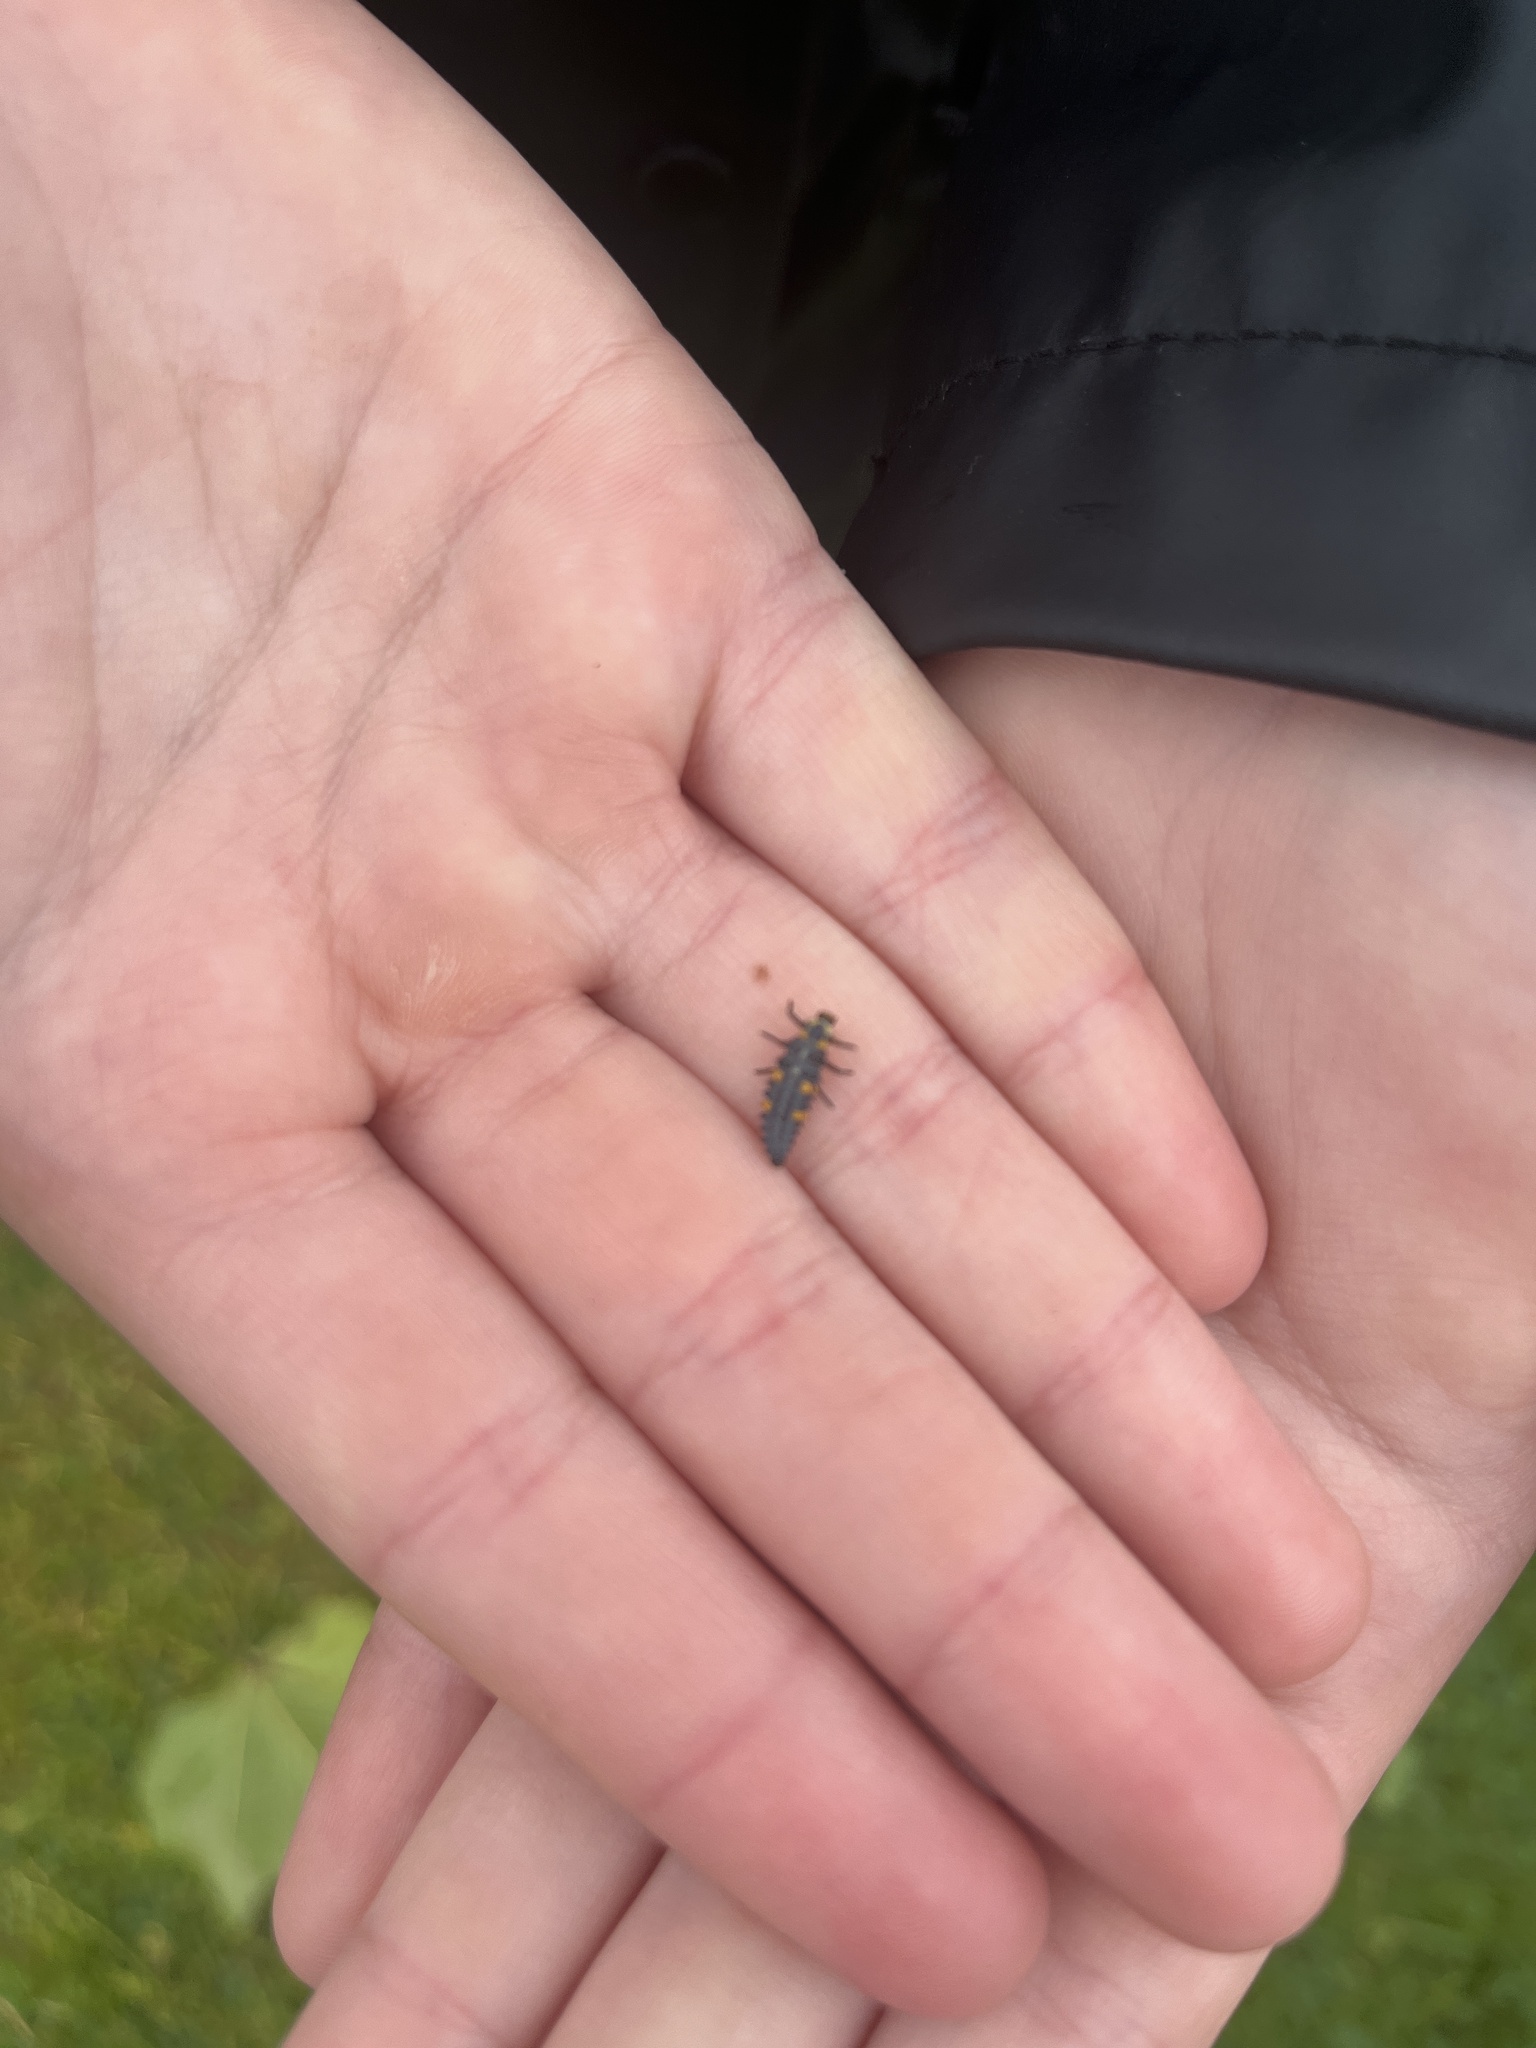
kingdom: Animalia
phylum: Arthropoda
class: Insecta
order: Coleoptera
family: Coccinellidae
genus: Coccinella
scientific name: Coccinella septempunctata
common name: Sevenspotted lady beetle
